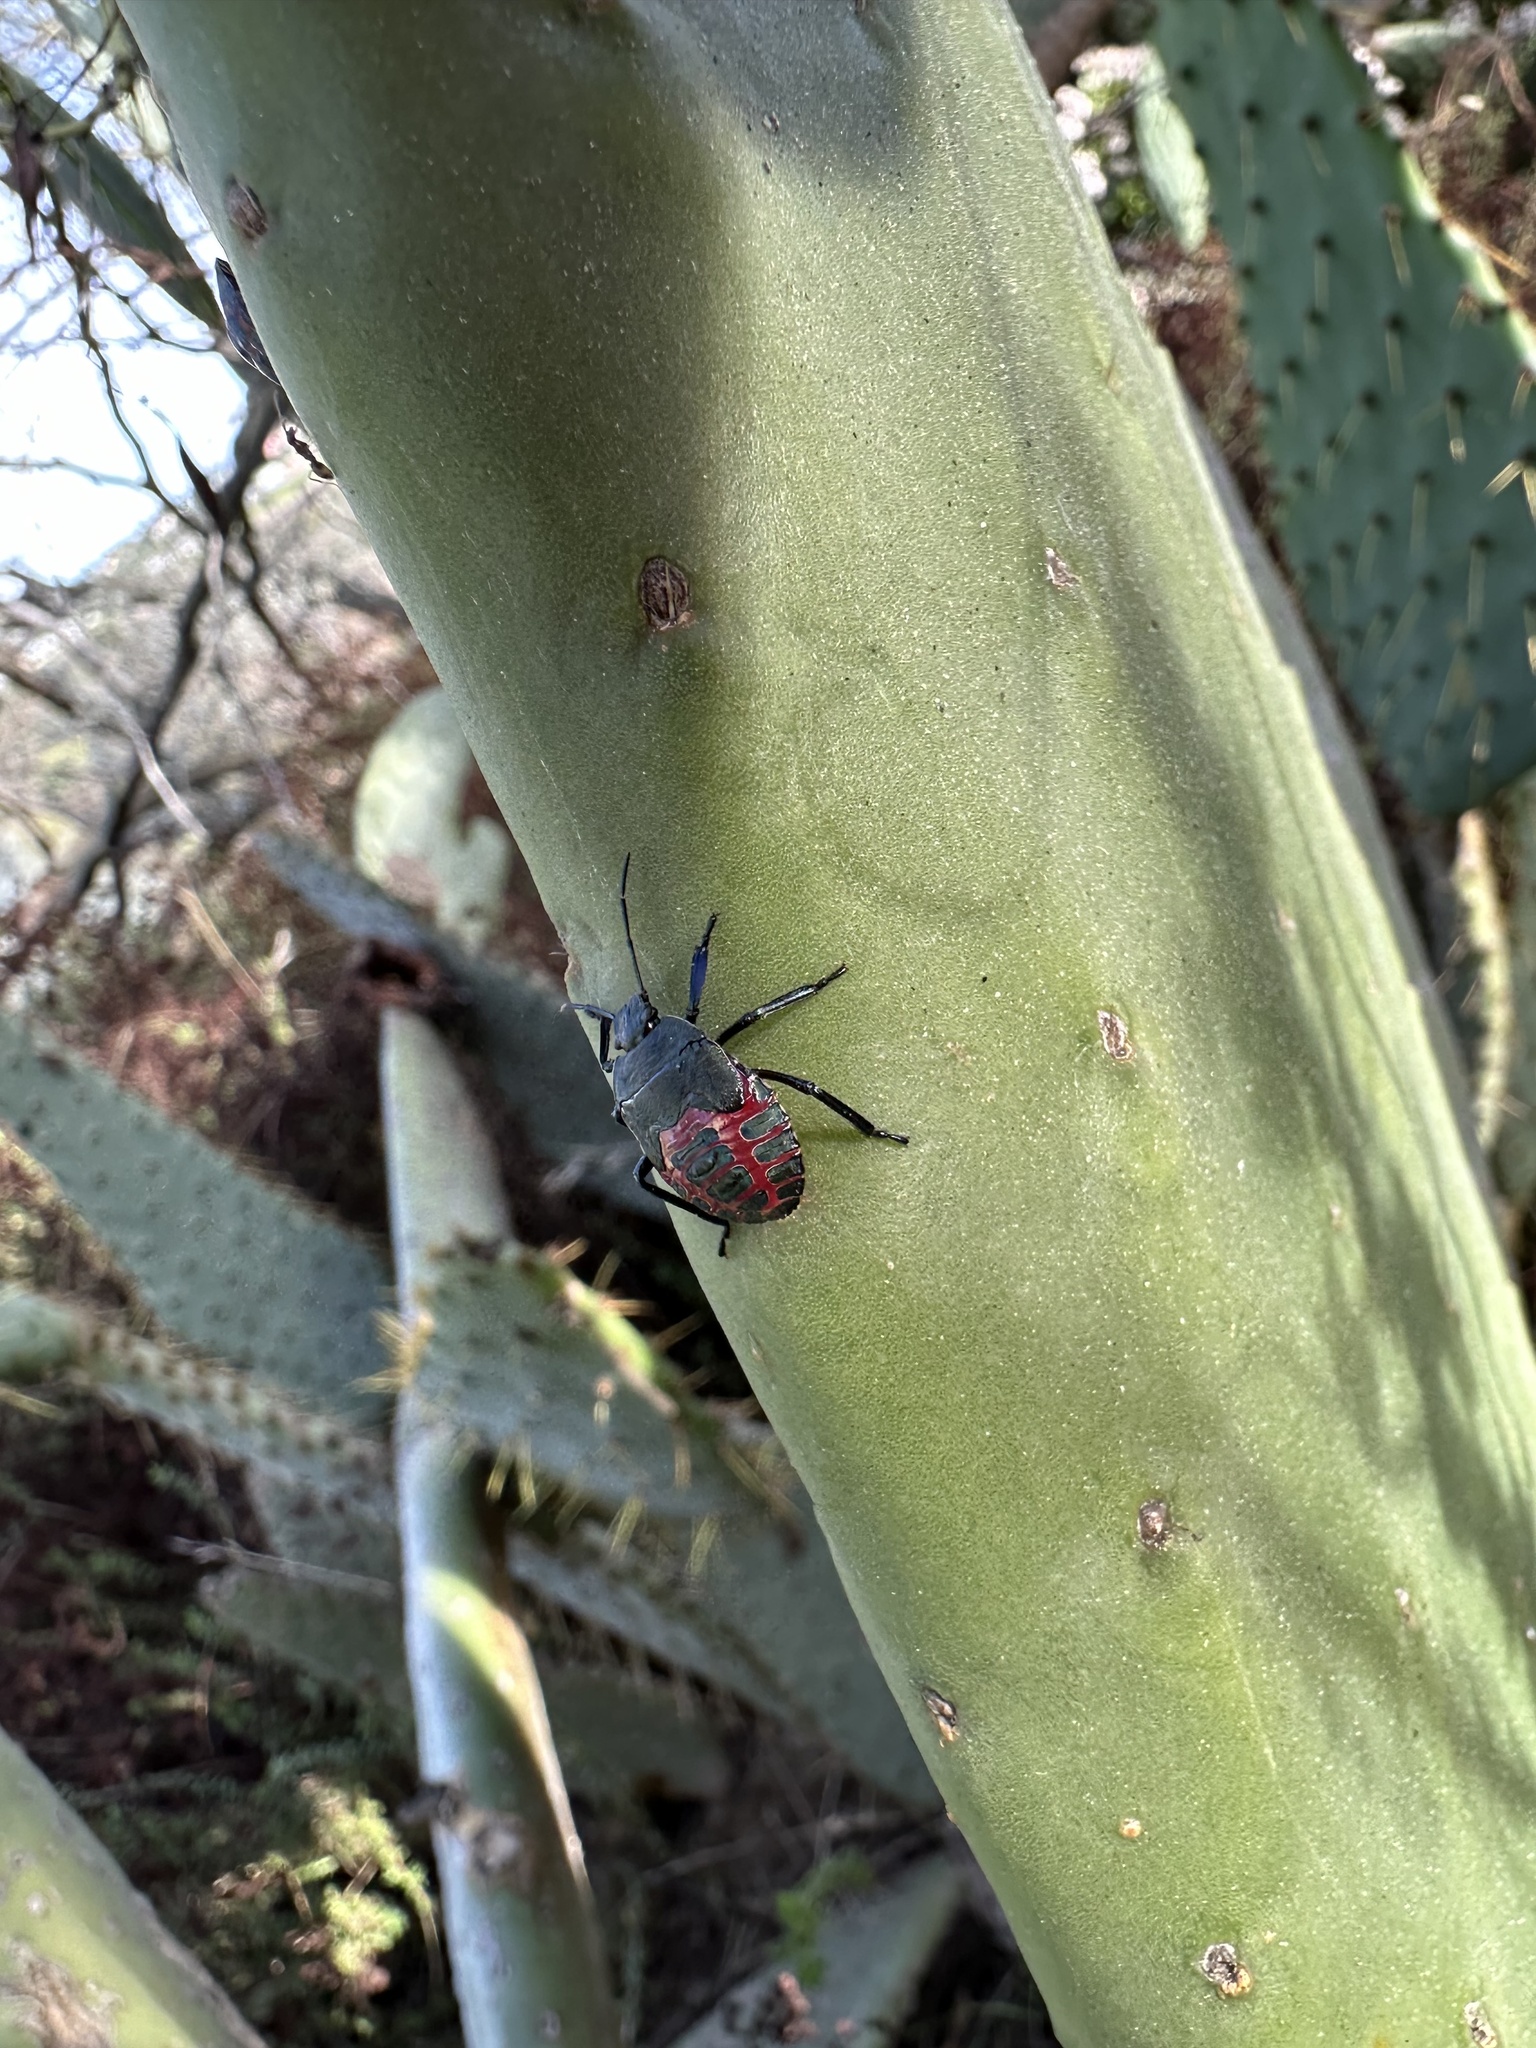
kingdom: Animalia
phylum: Arthropoda
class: Insecta
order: Hemiptera
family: Pentatomidae
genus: Pellaea
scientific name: Pellaea stictica
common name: Stink bug
